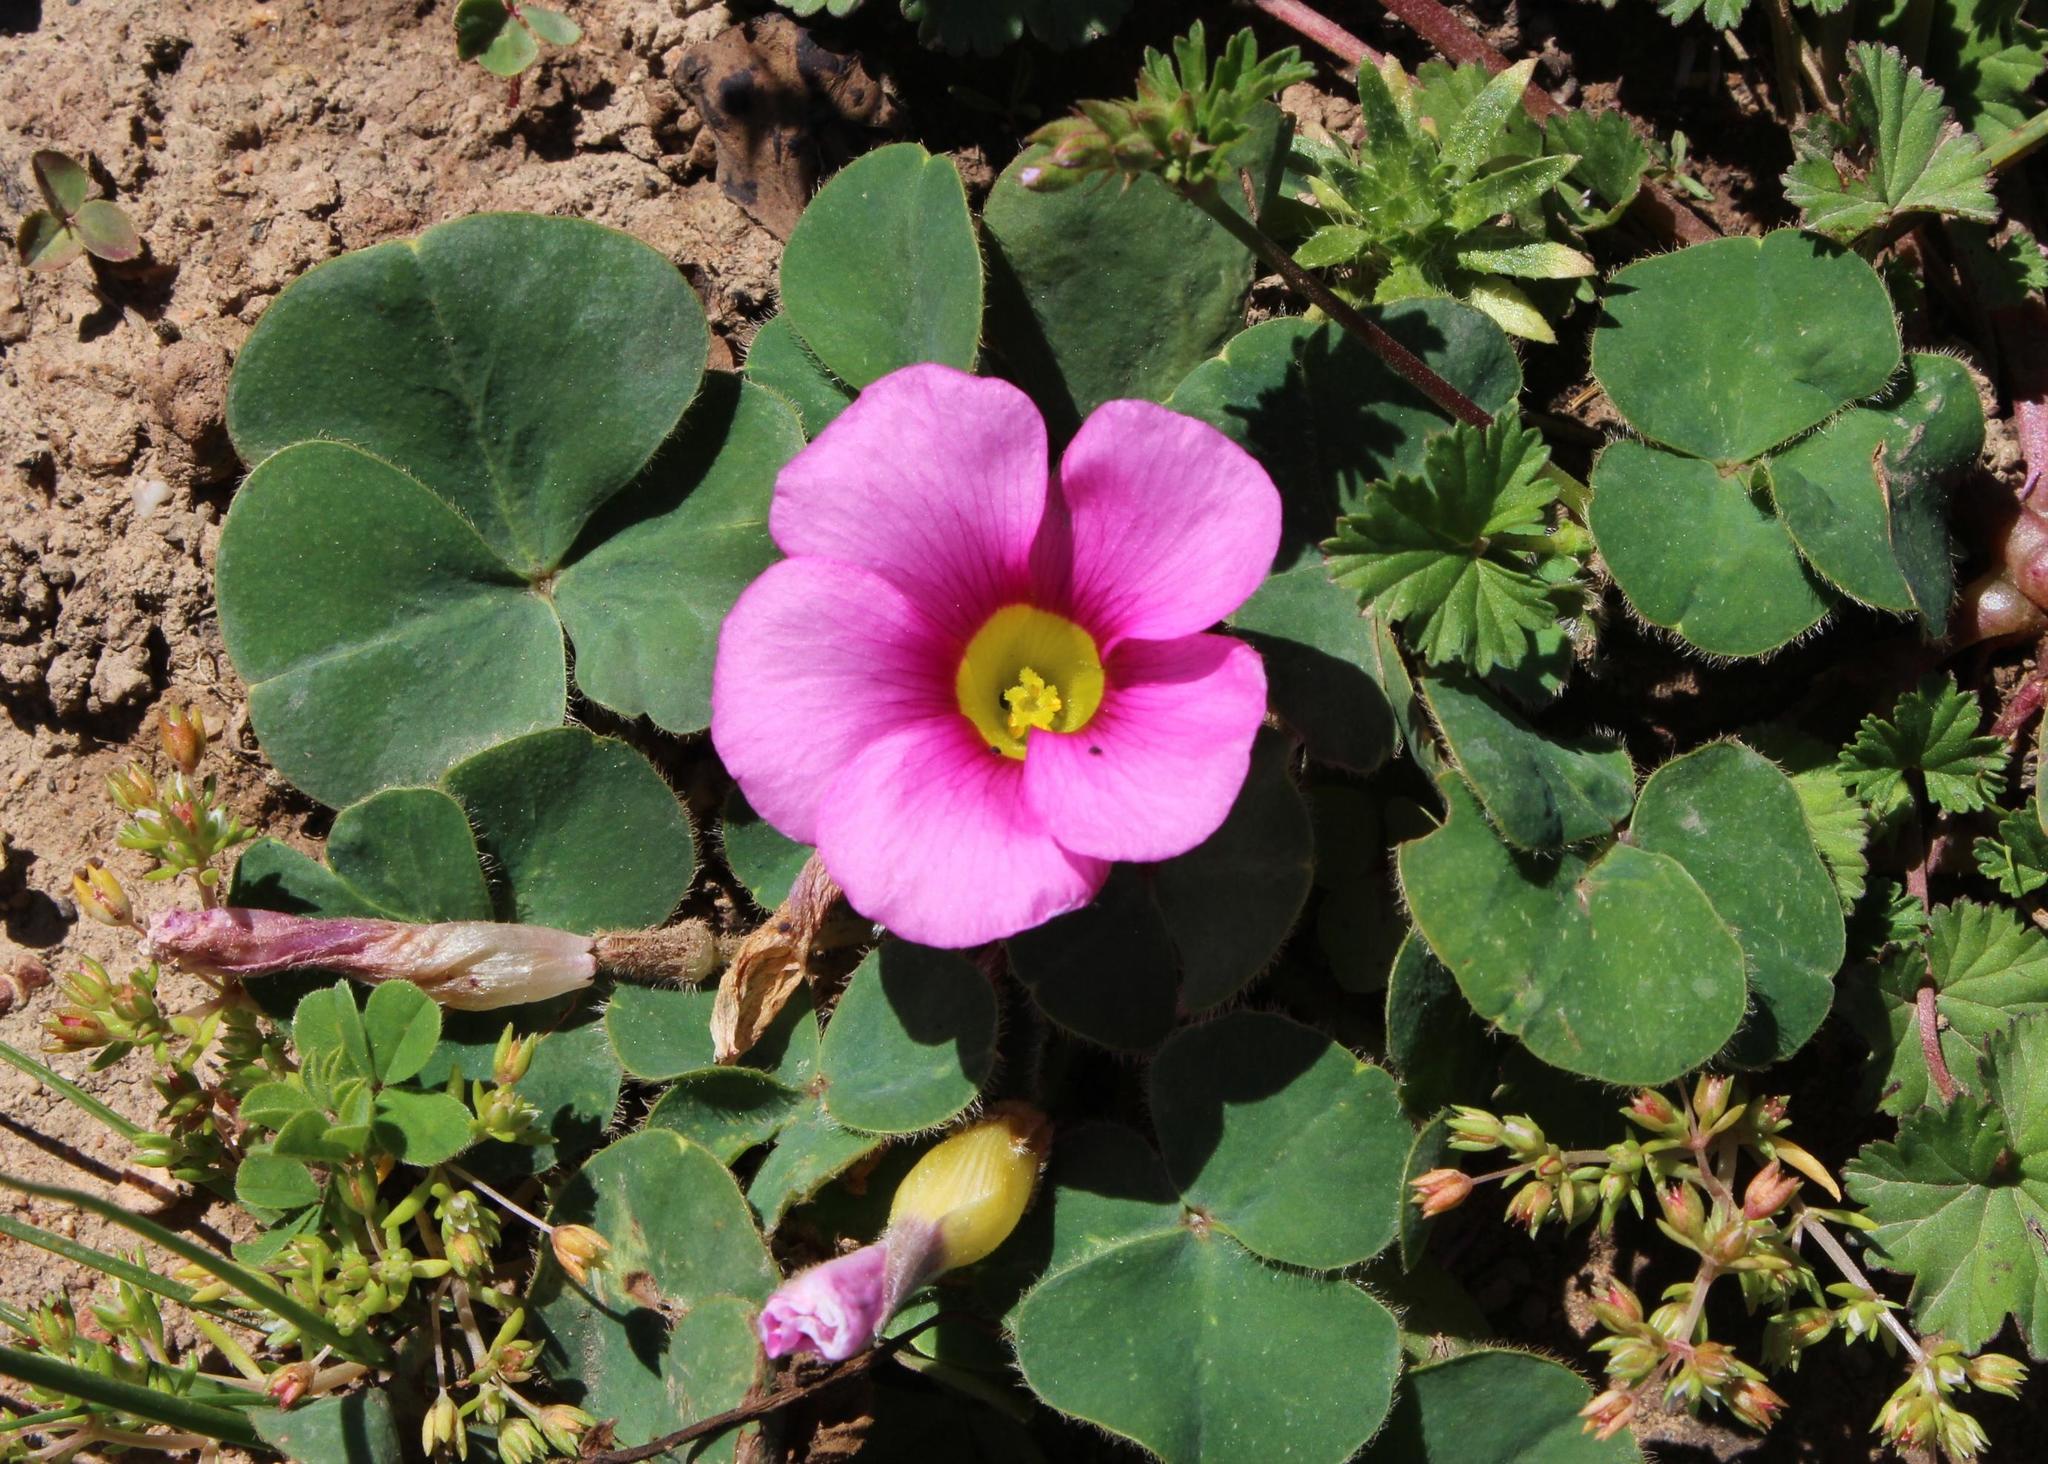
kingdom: Plantae
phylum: Tracheophyta
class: Magnoliopsida
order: Oxalidales
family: Oxalidaceae
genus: Oxalis
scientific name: Oxalis purpurea
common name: Purple woodsorrel
